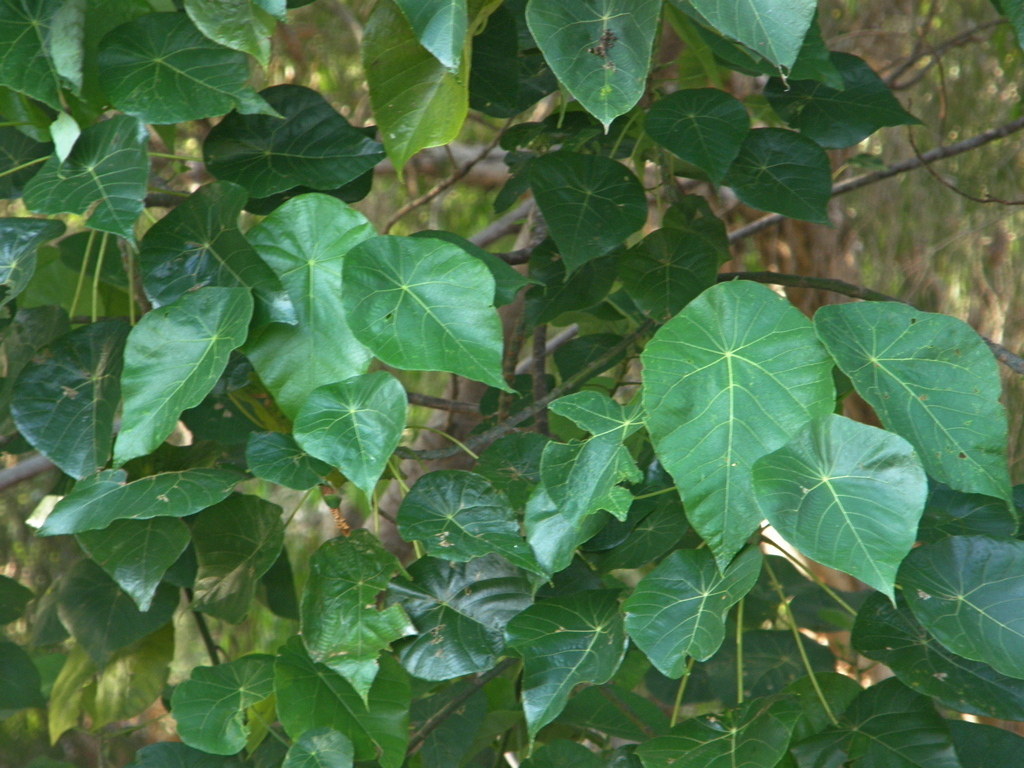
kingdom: Plantae
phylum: Tracheophyta
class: Magnoliopsida
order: Malpighiales
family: Euphorbiaceae
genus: Macaranga
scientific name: Macaranga tanarius
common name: Parasol leaf tree
